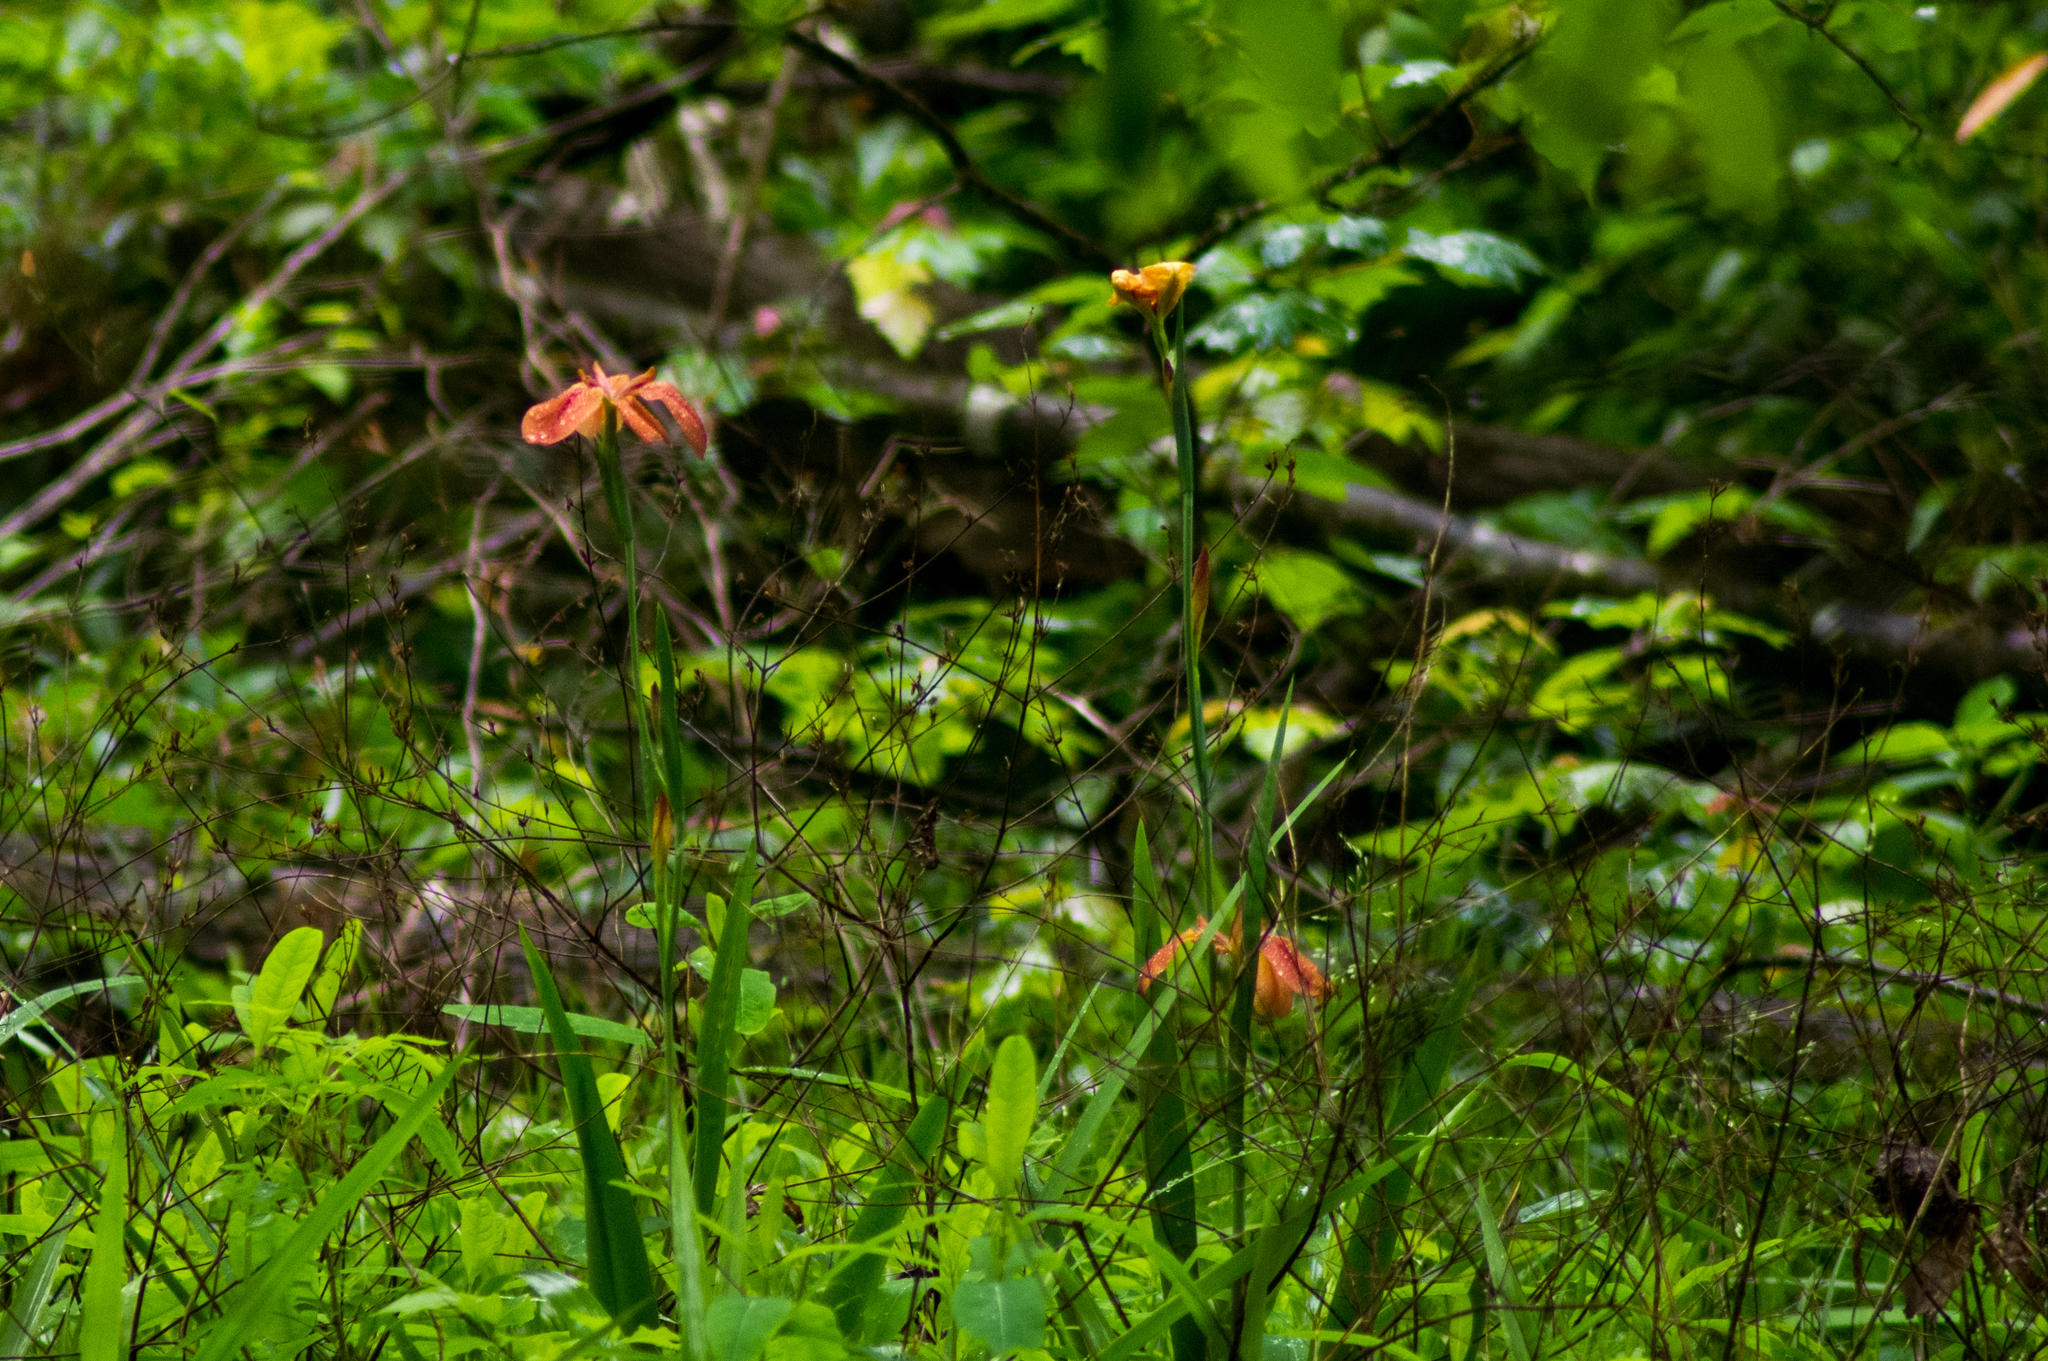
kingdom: Plantae
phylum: Tracheophyta
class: Liliopsida
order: Asparagales
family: Iridaceae
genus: Iris
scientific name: Iris fulva
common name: Copper iris
